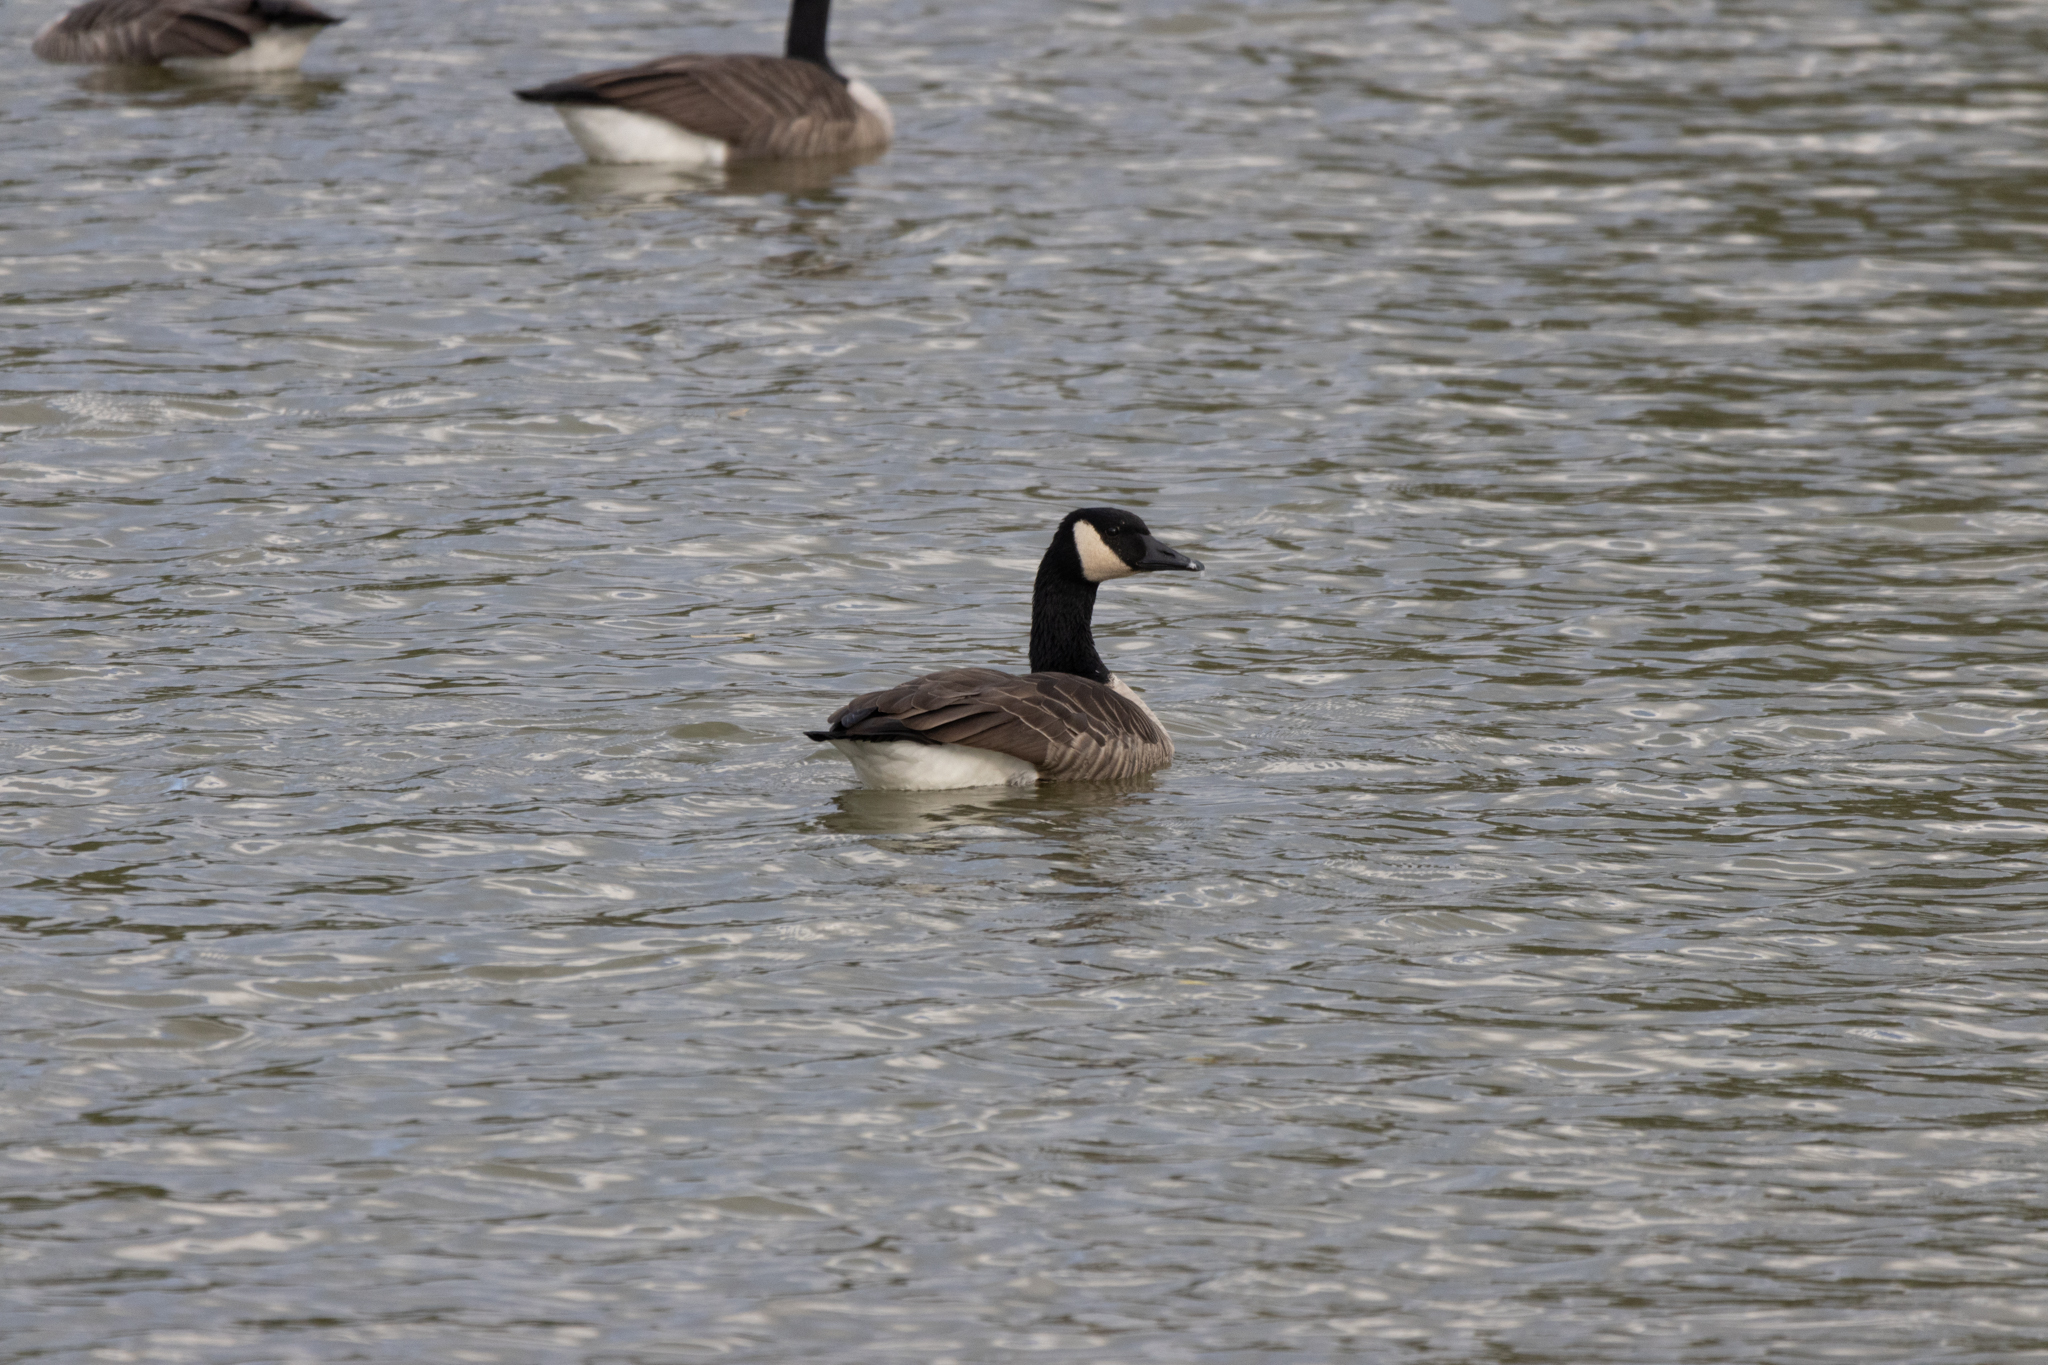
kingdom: Animalia
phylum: Chordata
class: Aves
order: Anseriformes
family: Anatidae
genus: Branta
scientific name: Branta canadensis
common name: Canada goose
